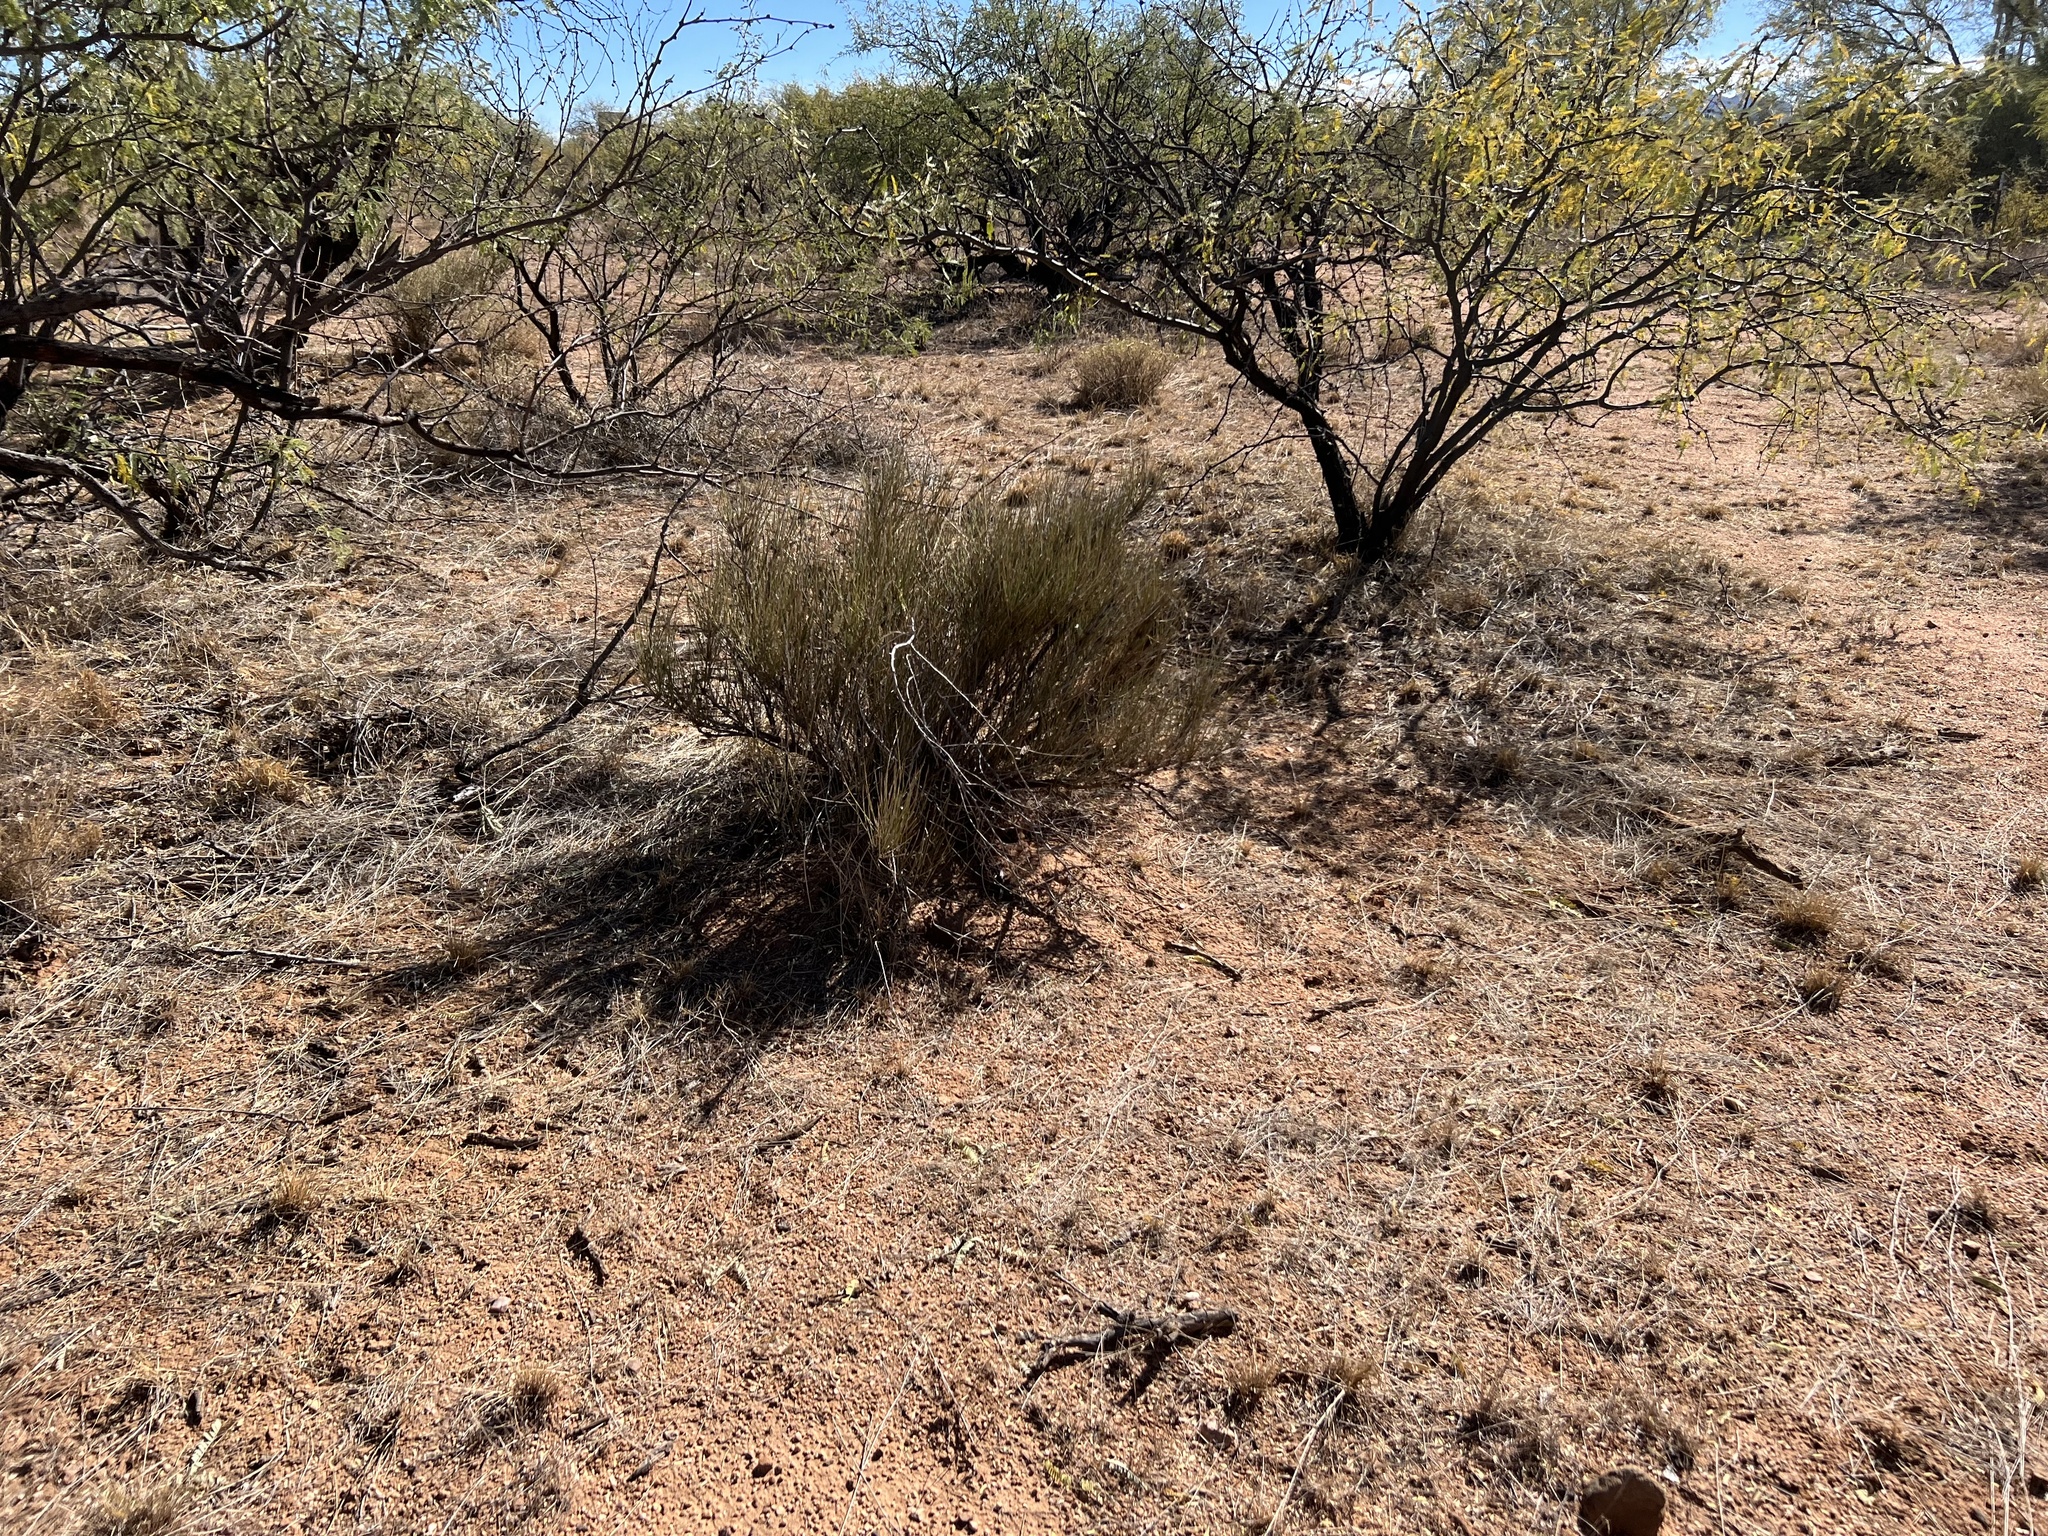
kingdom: Plantae
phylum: Tracheophyta
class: Gnetopsida
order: Ephedrales
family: Ephedraceae
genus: Ephedra
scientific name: Ephedra trifurca
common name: Mexican-tea
